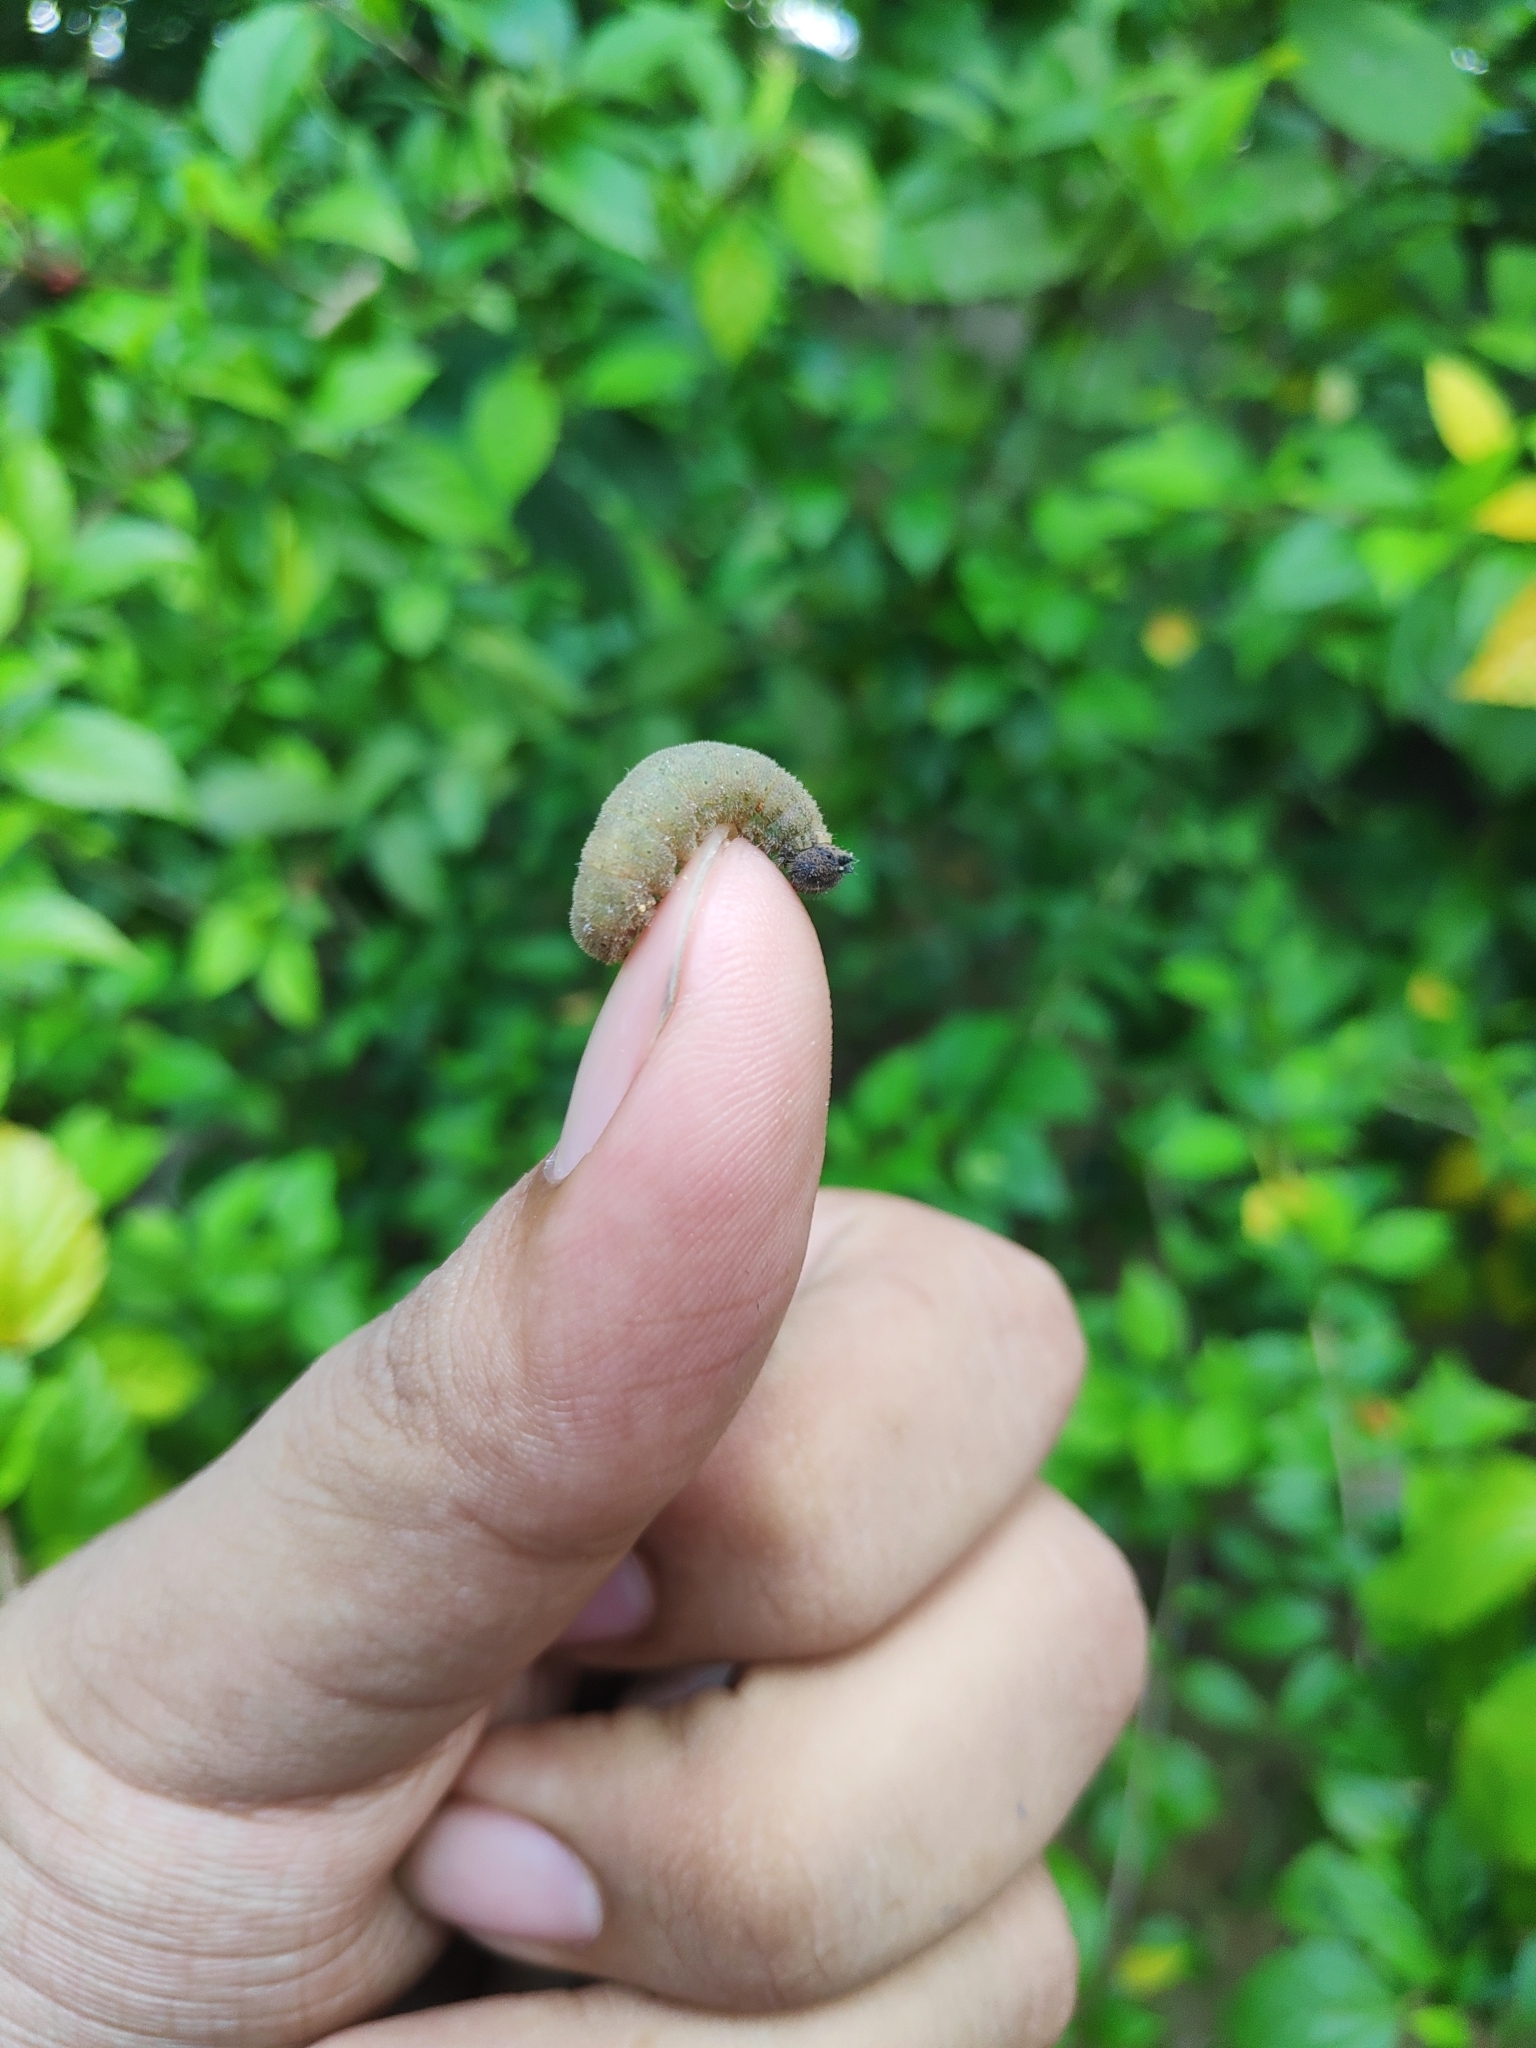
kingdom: Animalia
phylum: Arthropoda
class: Insecta
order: Lepidoptera
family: Papilionidae
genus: Graphium
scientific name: Graphium agamemnon
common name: Tailed jay
